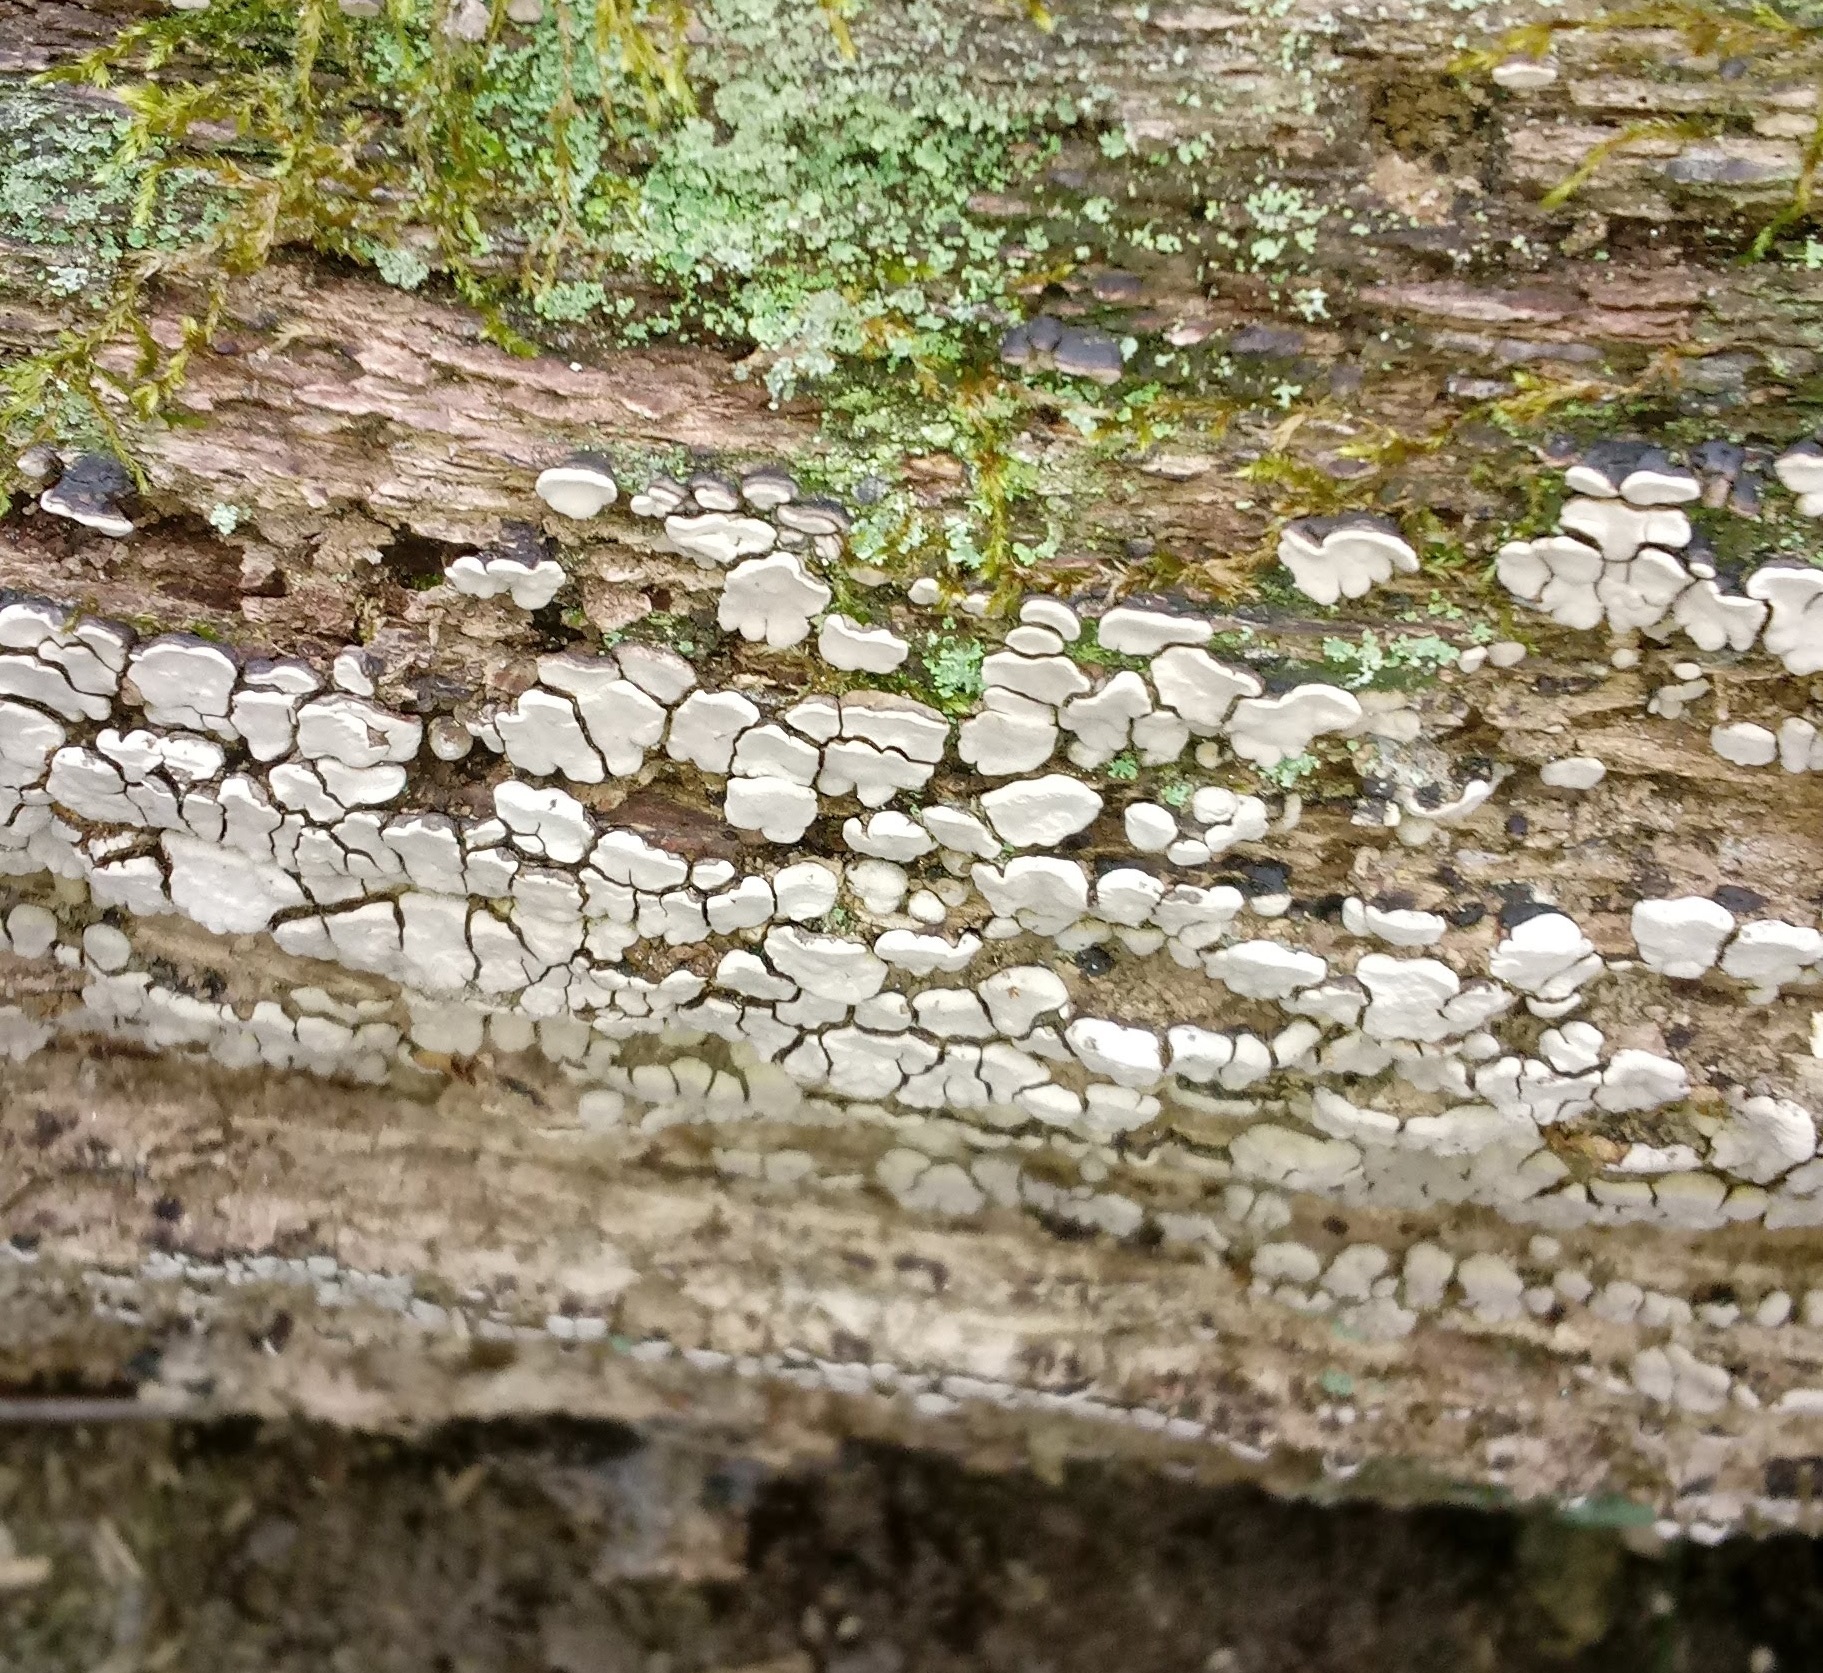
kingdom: Fungi
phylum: Basidiomycota
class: Agaricomycetes
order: Russulales
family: Stereaceae
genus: Xylobolus
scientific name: Xylobolus frustulatus
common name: Ceramic parchment
